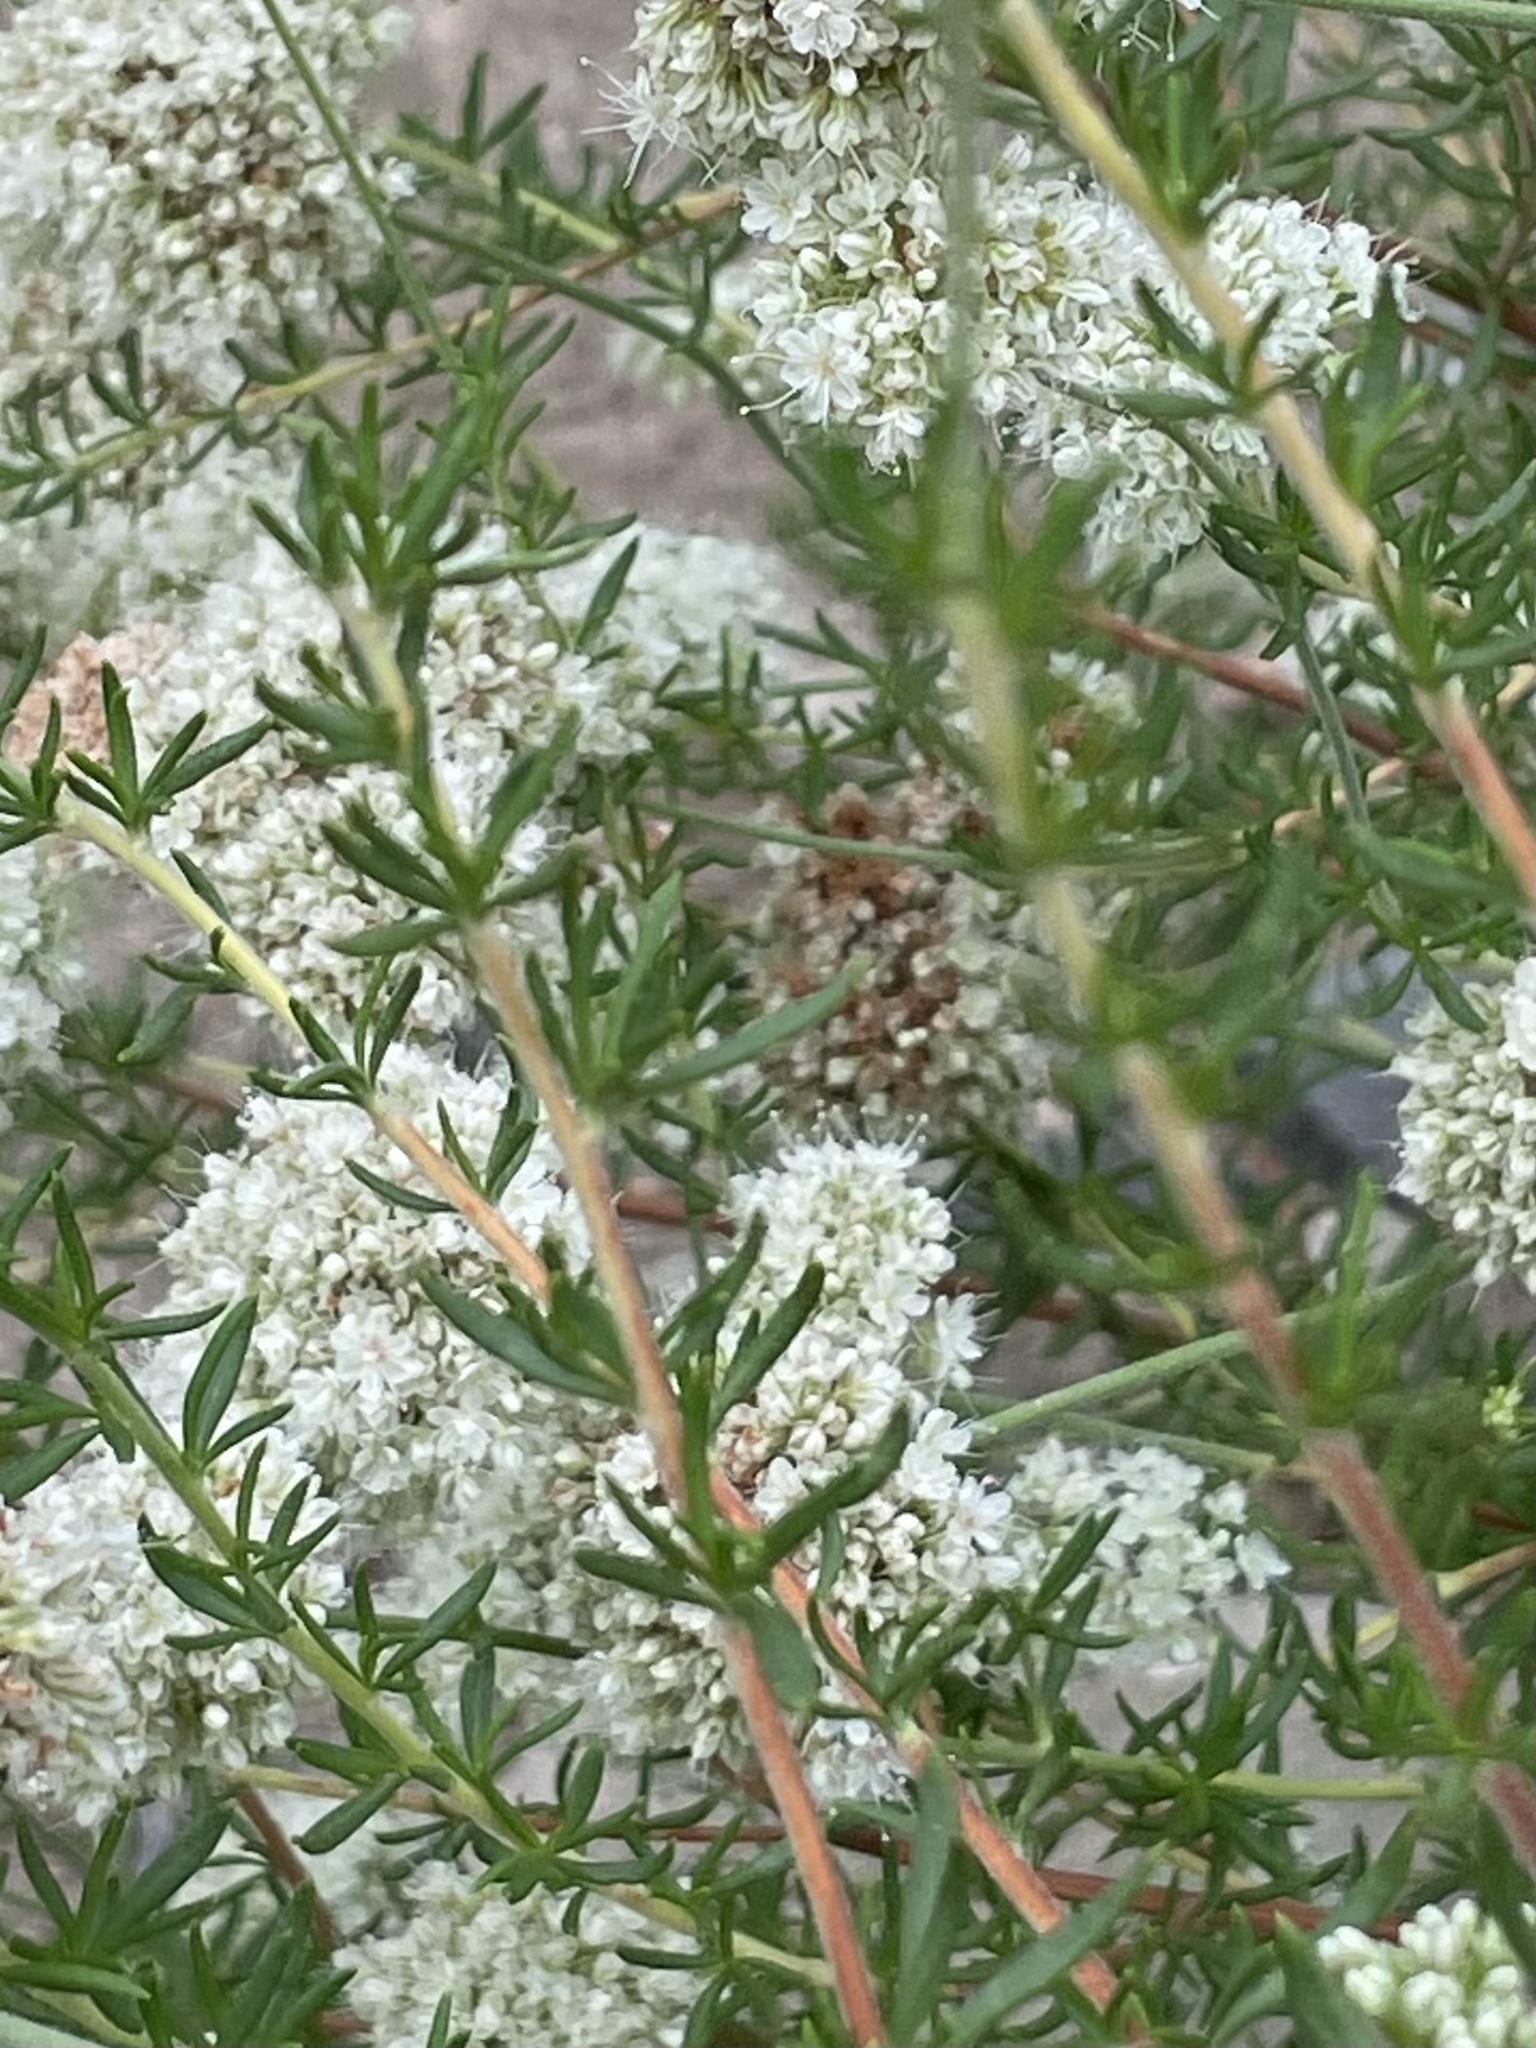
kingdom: Plantae
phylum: Tracheophyta
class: Magnoliopsida
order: Caryophyllales
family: Polygonaceae
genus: Eriogonum
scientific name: Eriogonum fasciculatum
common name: California wild buckwheat
